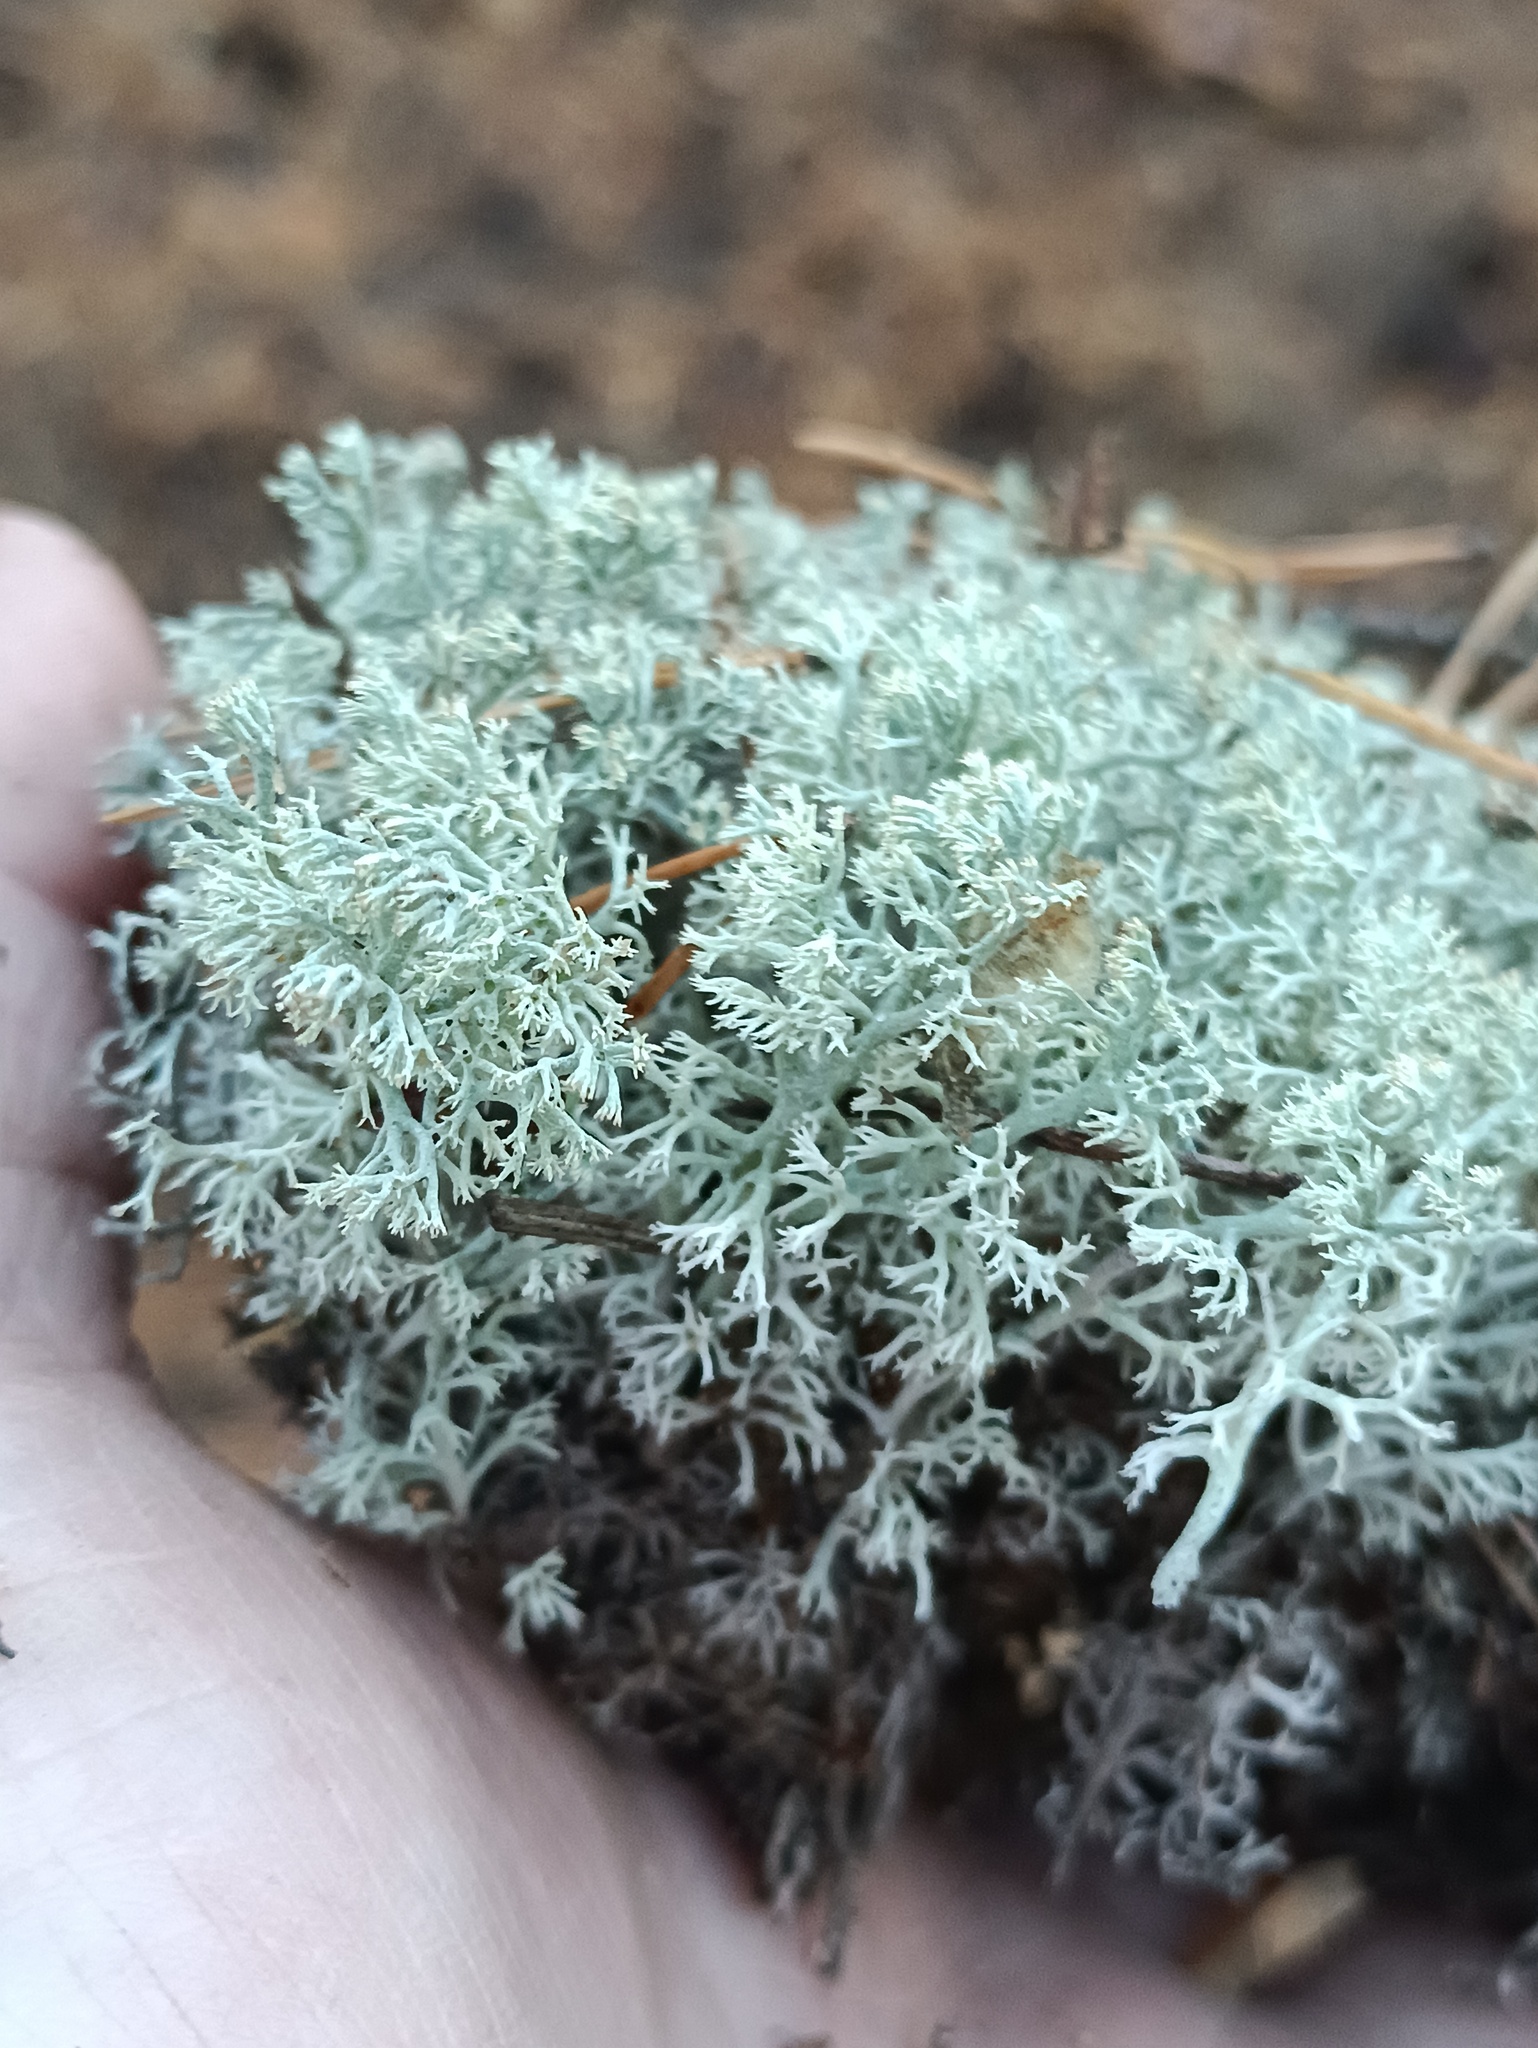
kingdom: Fungi
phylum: Ascomycota
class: Lecanoromycetes
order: Lecanorales
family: Cladoniaceae
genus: Cladonia
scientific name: Cladonia arbuscula
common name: Reindeer lichen
